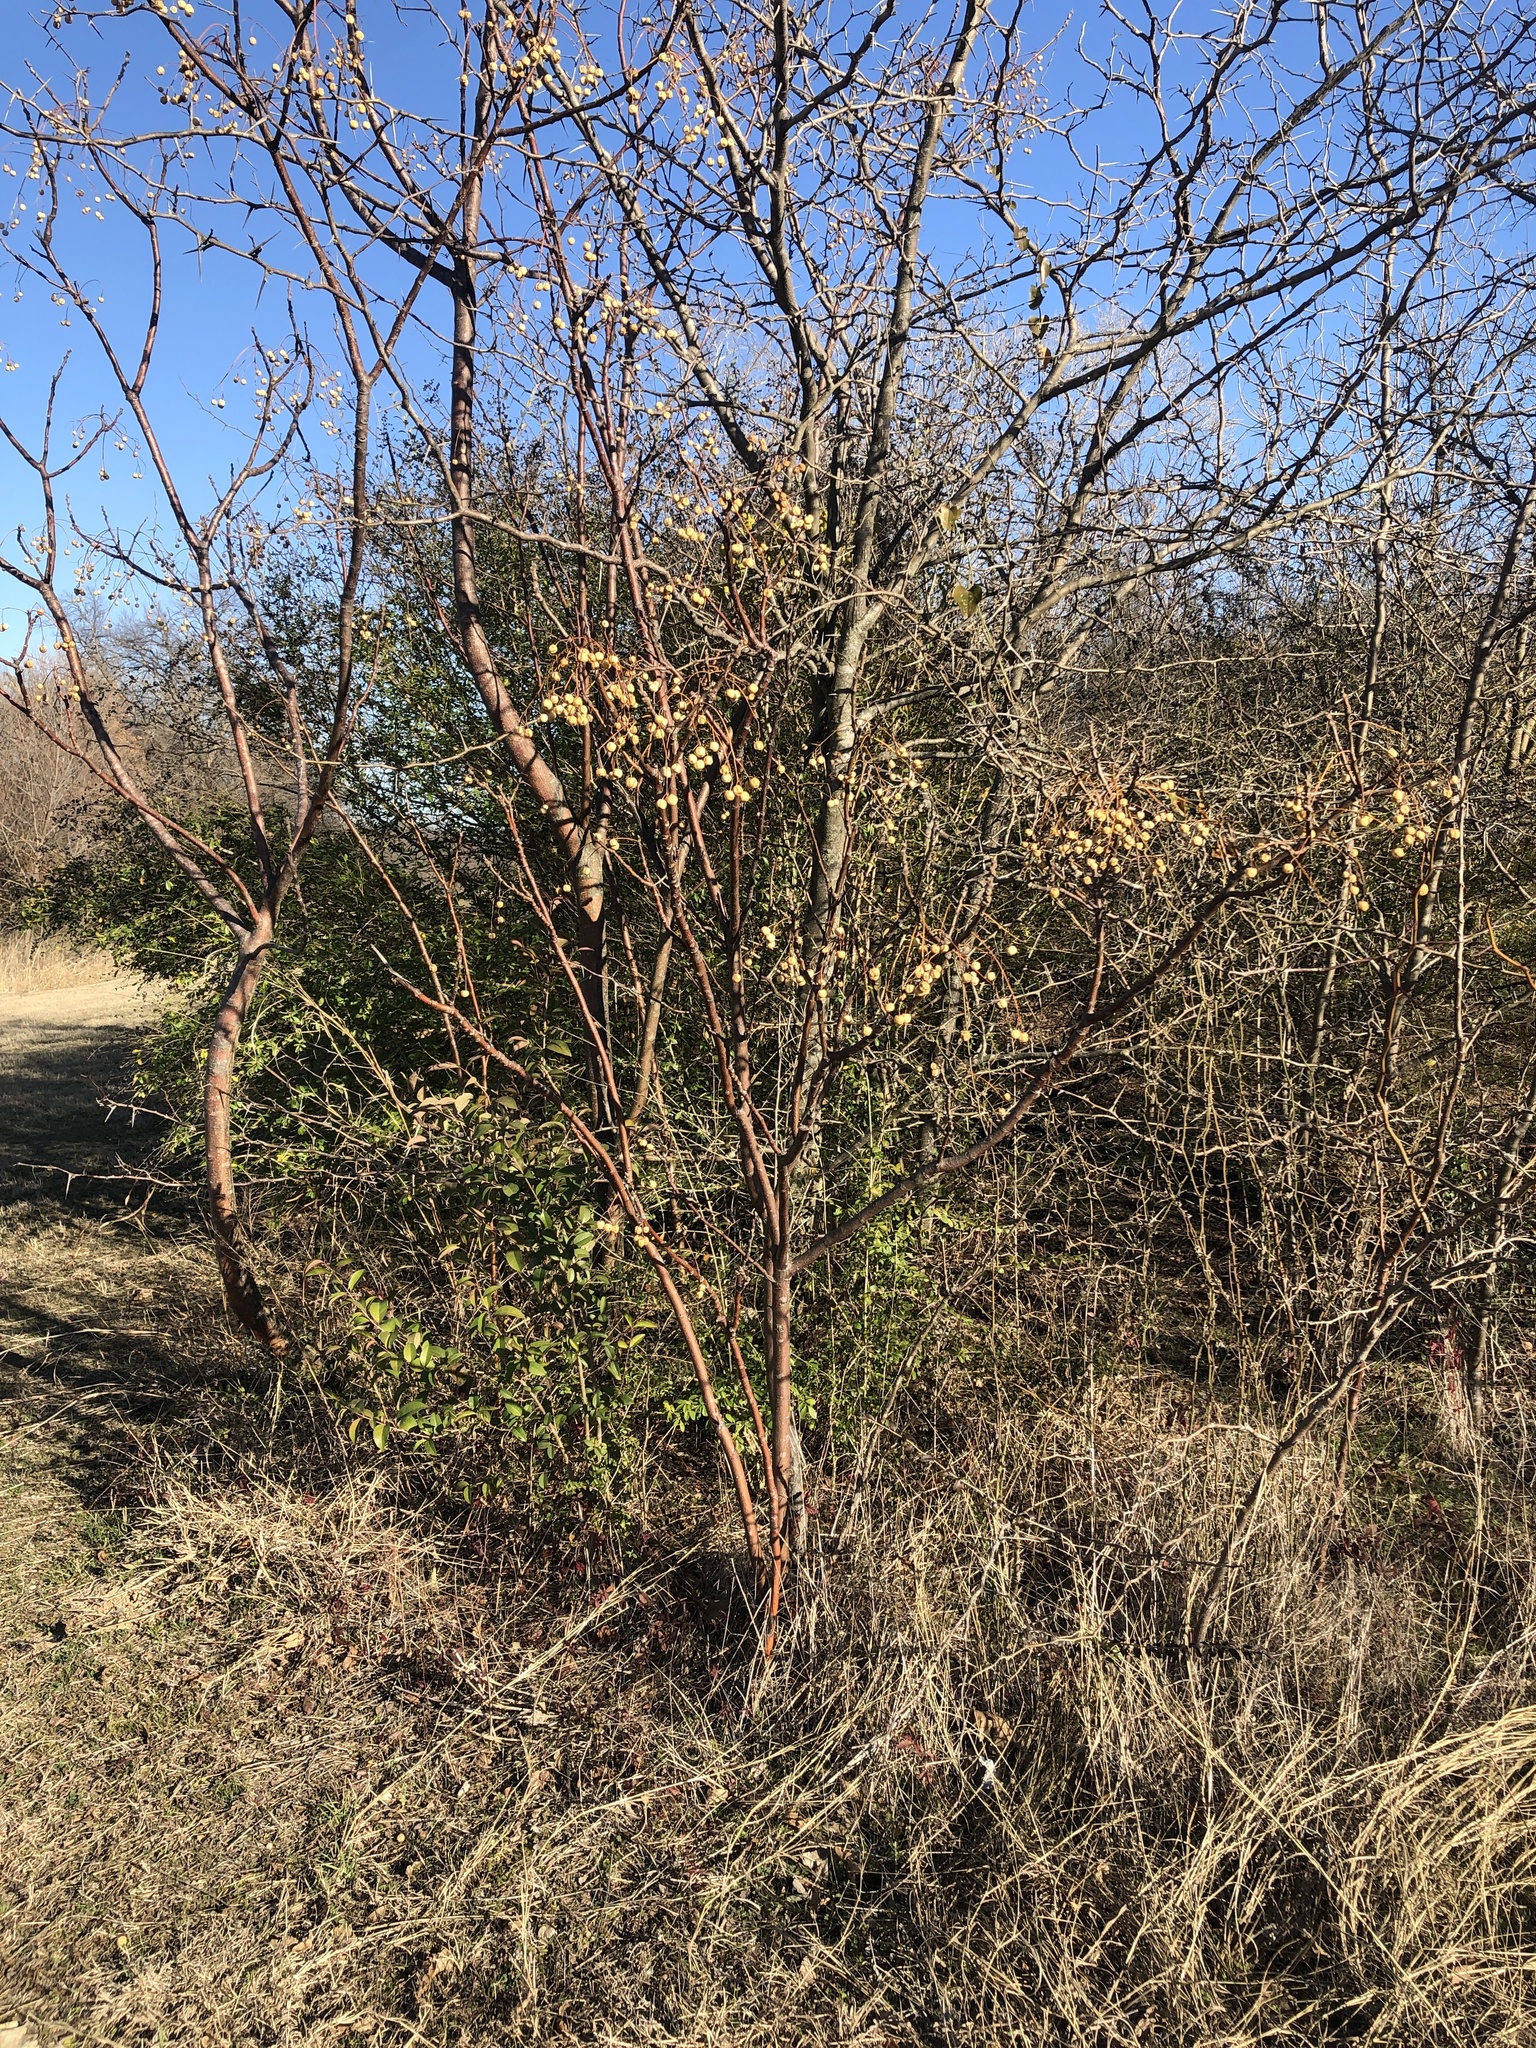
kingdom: Plantae
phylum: Tracheophyta
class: Magnoliopsida
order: Sapindales
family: Meliaceae
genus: Melia
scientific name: Melia azedarach
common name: Chinaberrytree
